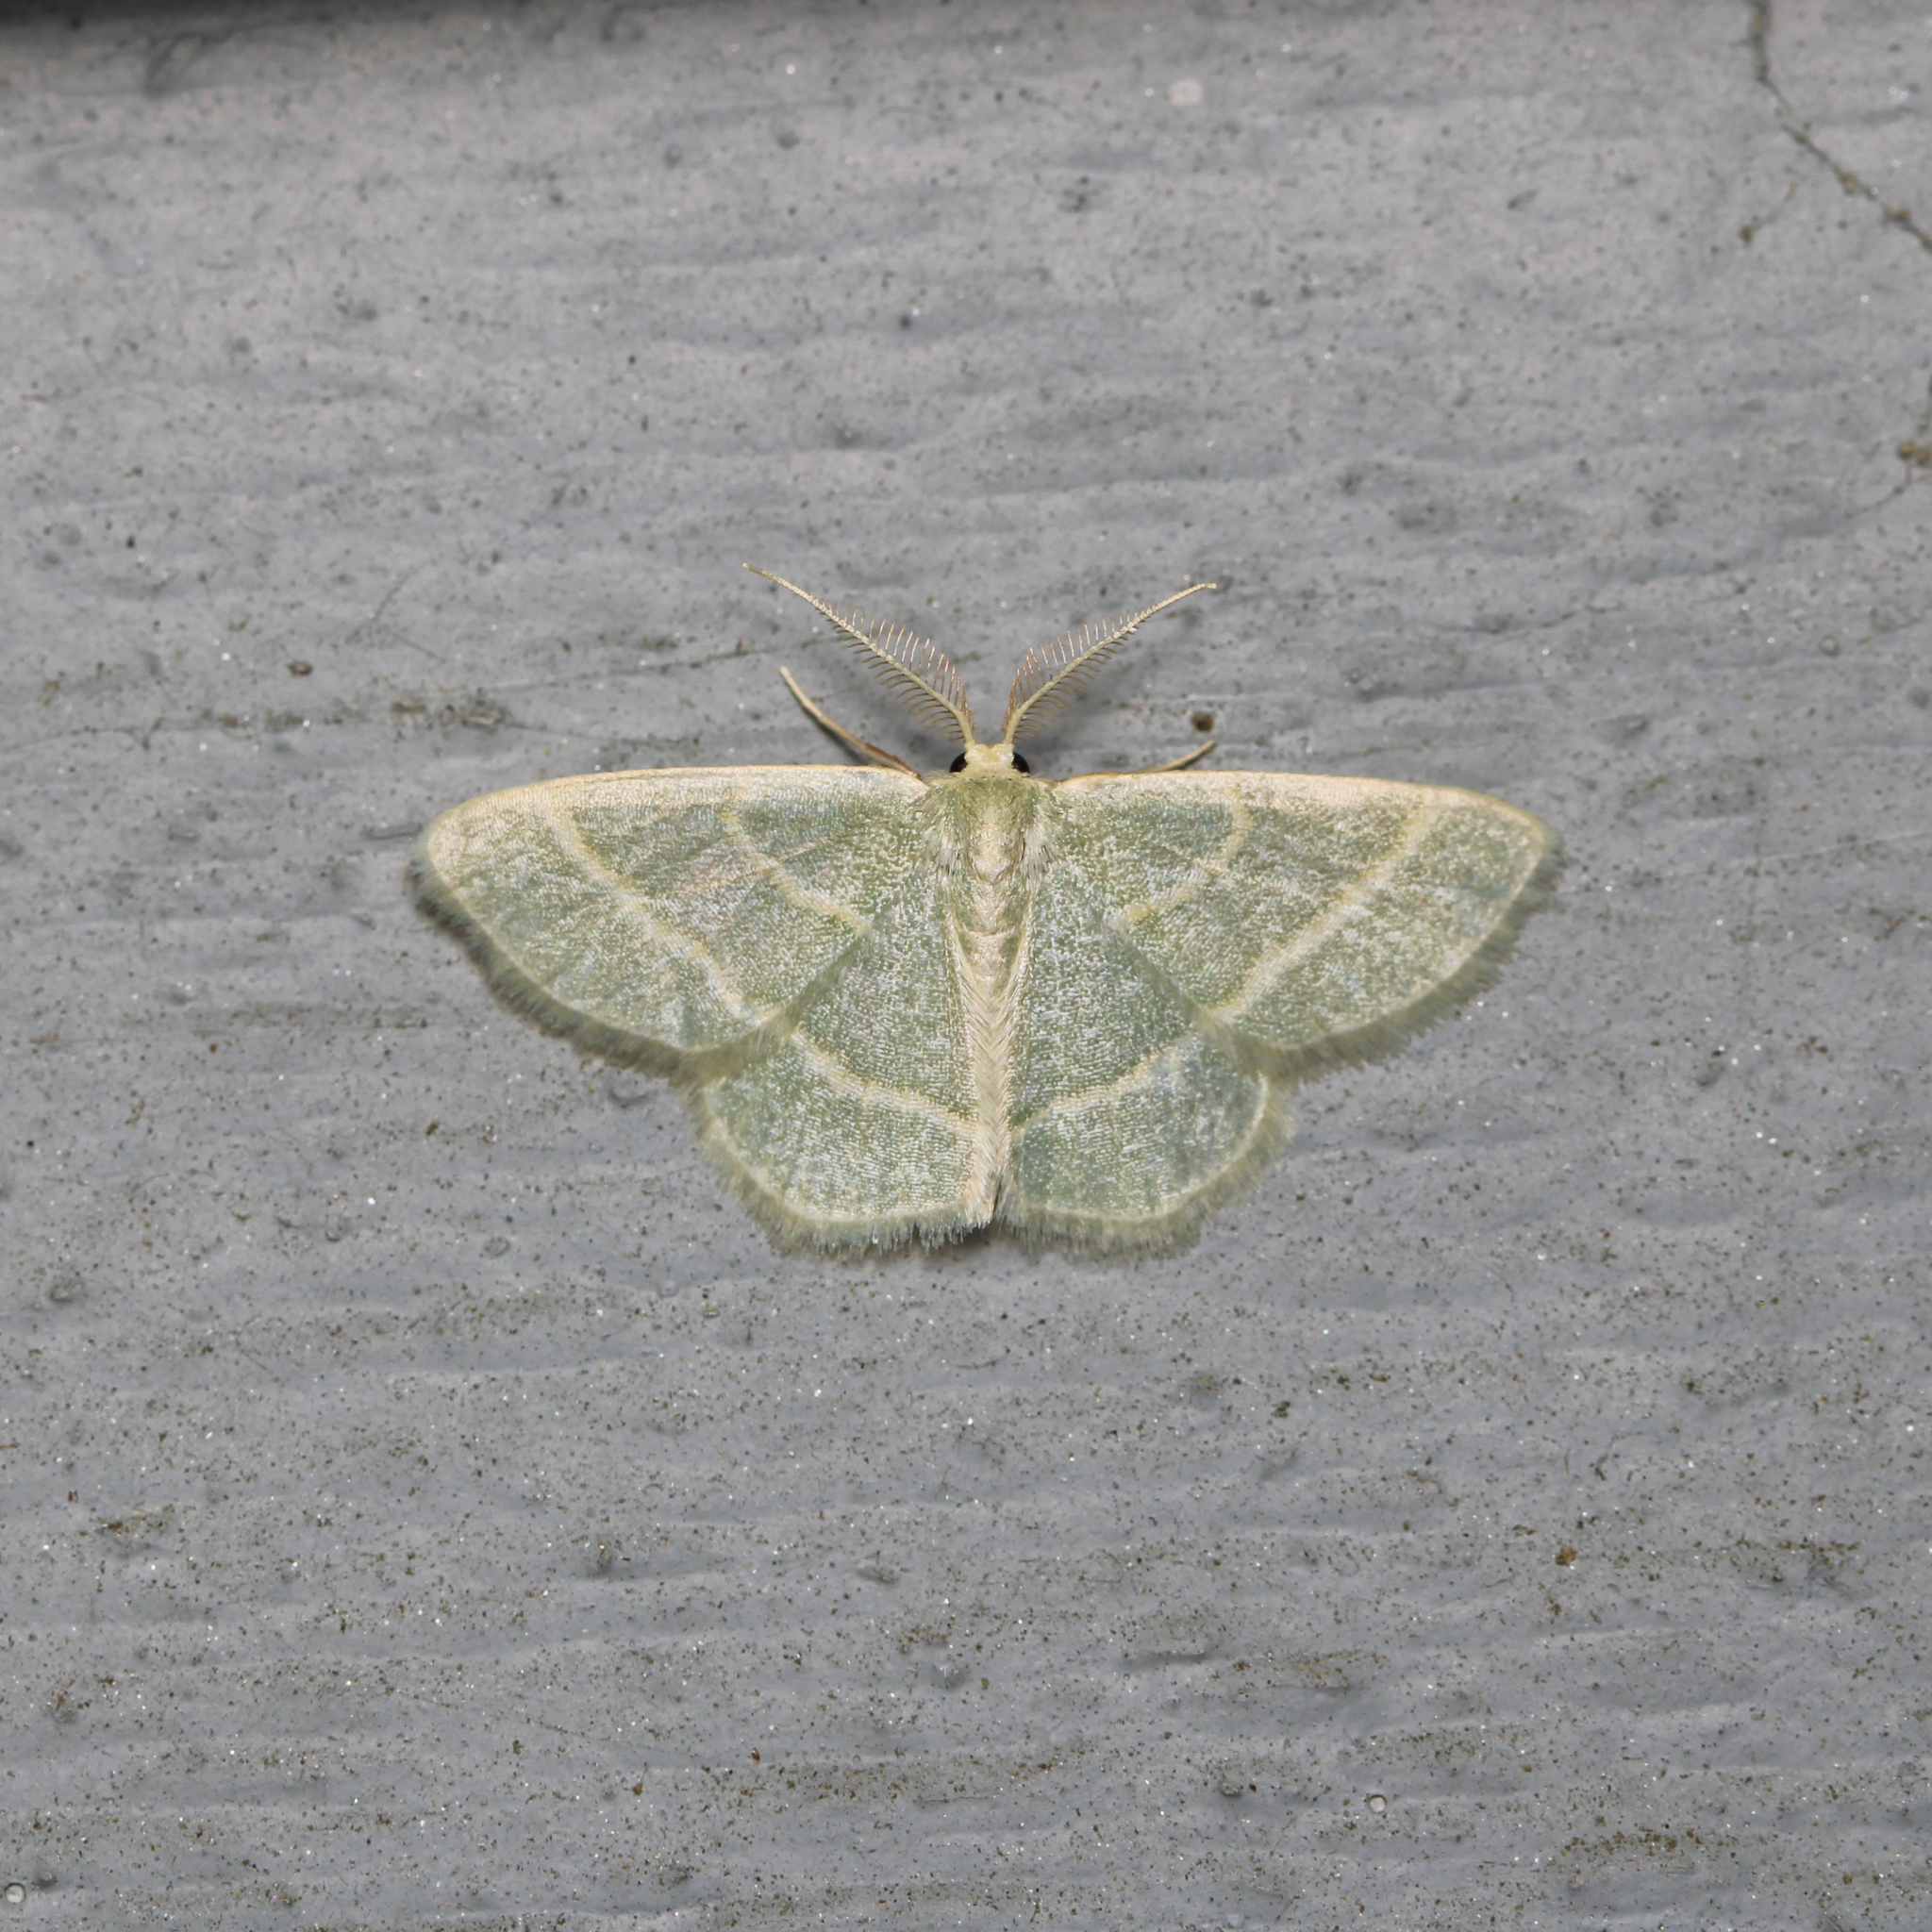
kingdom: Animalia
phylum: Arthropoda
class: Insecta
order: Lepidoptera
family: Geometridae
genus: Chlorochlamys
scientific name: Chlorochlamys chloroleucaria
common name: Blackberry looper
